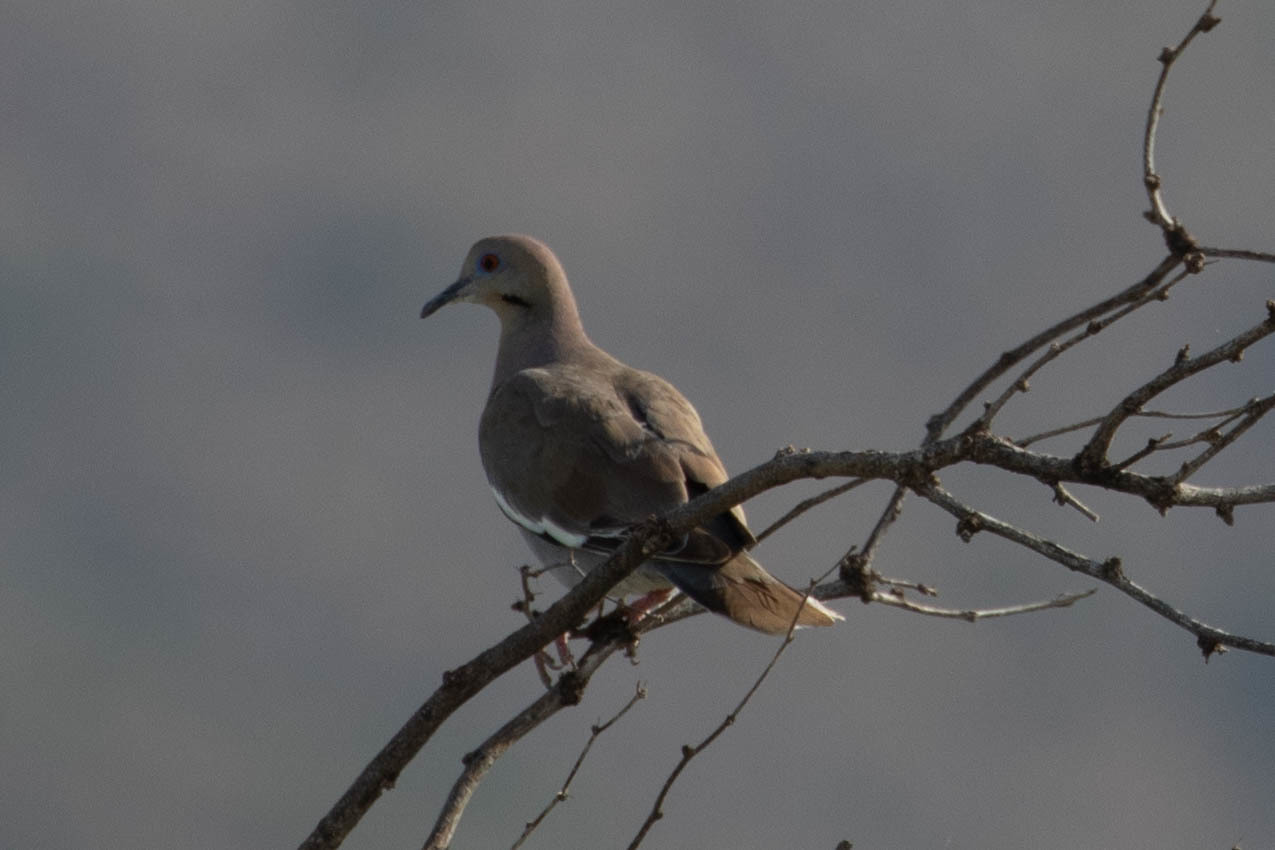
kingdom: Animalia
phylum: Chordata
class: Aves
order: Columbiformes
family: Columbidae
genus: Zenaida
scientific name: Zenaida asiatica
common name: White-winged dove
